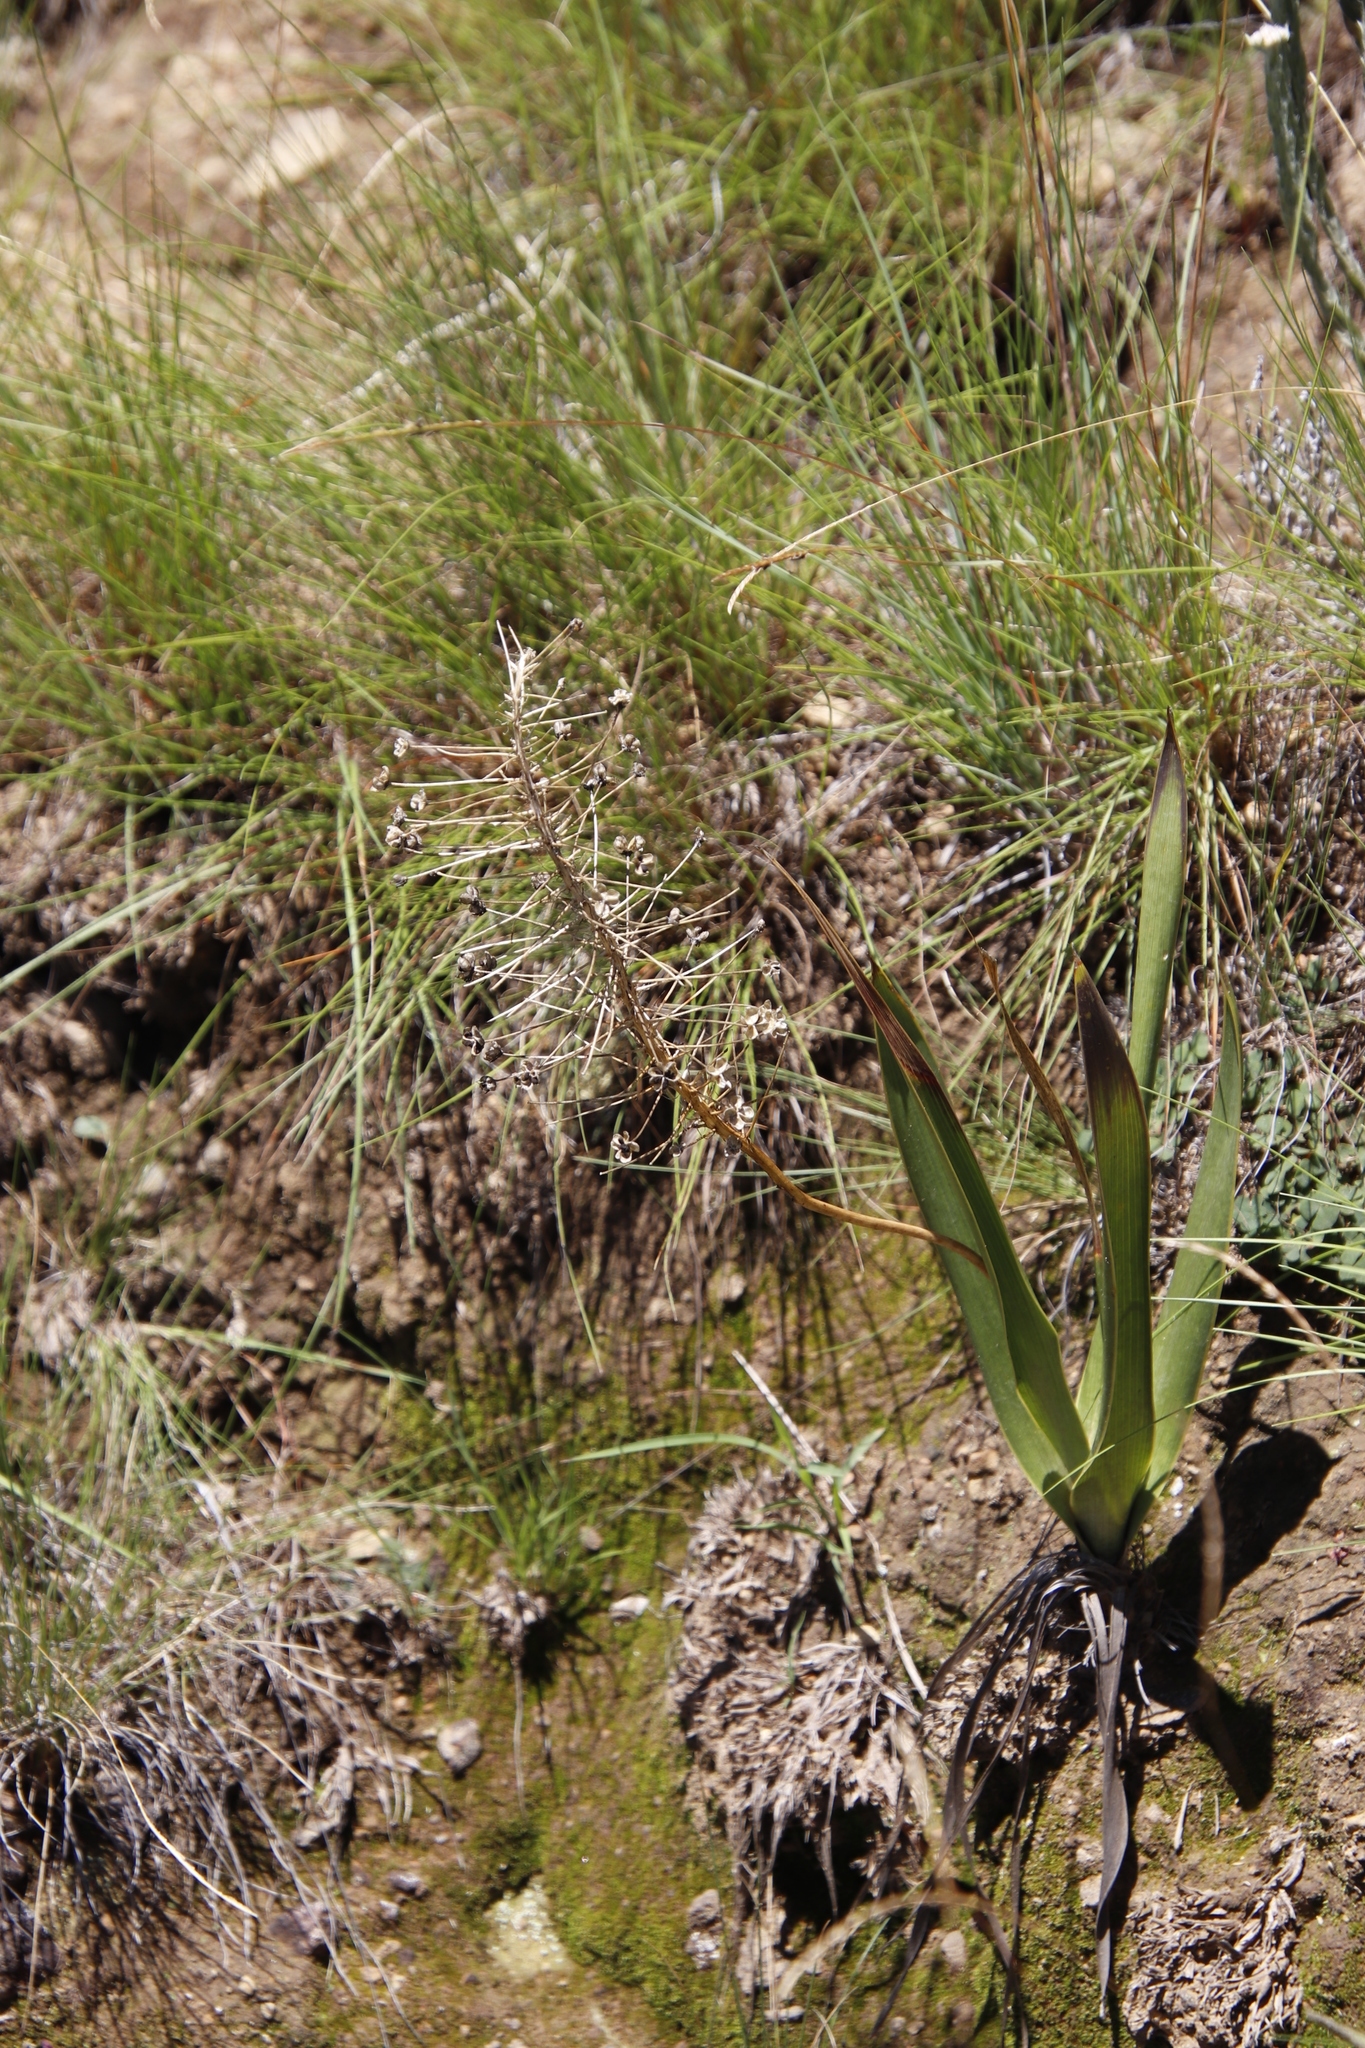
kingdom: Plantae
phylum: Tracheophyta
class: Liliopsida
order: Asparagales
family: Asparagaceae
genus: Schizocarphus
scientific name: Schizocarphus nervosus
